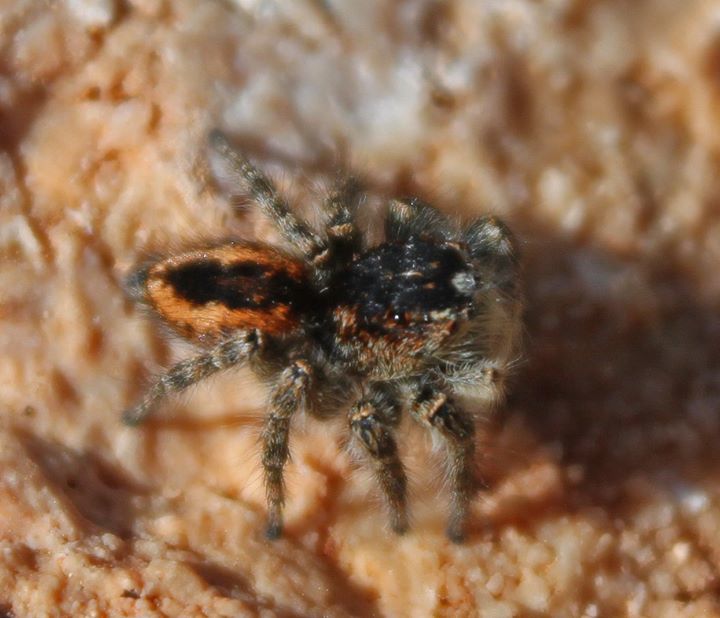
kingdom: Animalia
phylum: Arthropoda
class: Arachnida
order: Araneae
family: Salticidae
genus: Philaeus
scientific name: Philaeus chrysops
